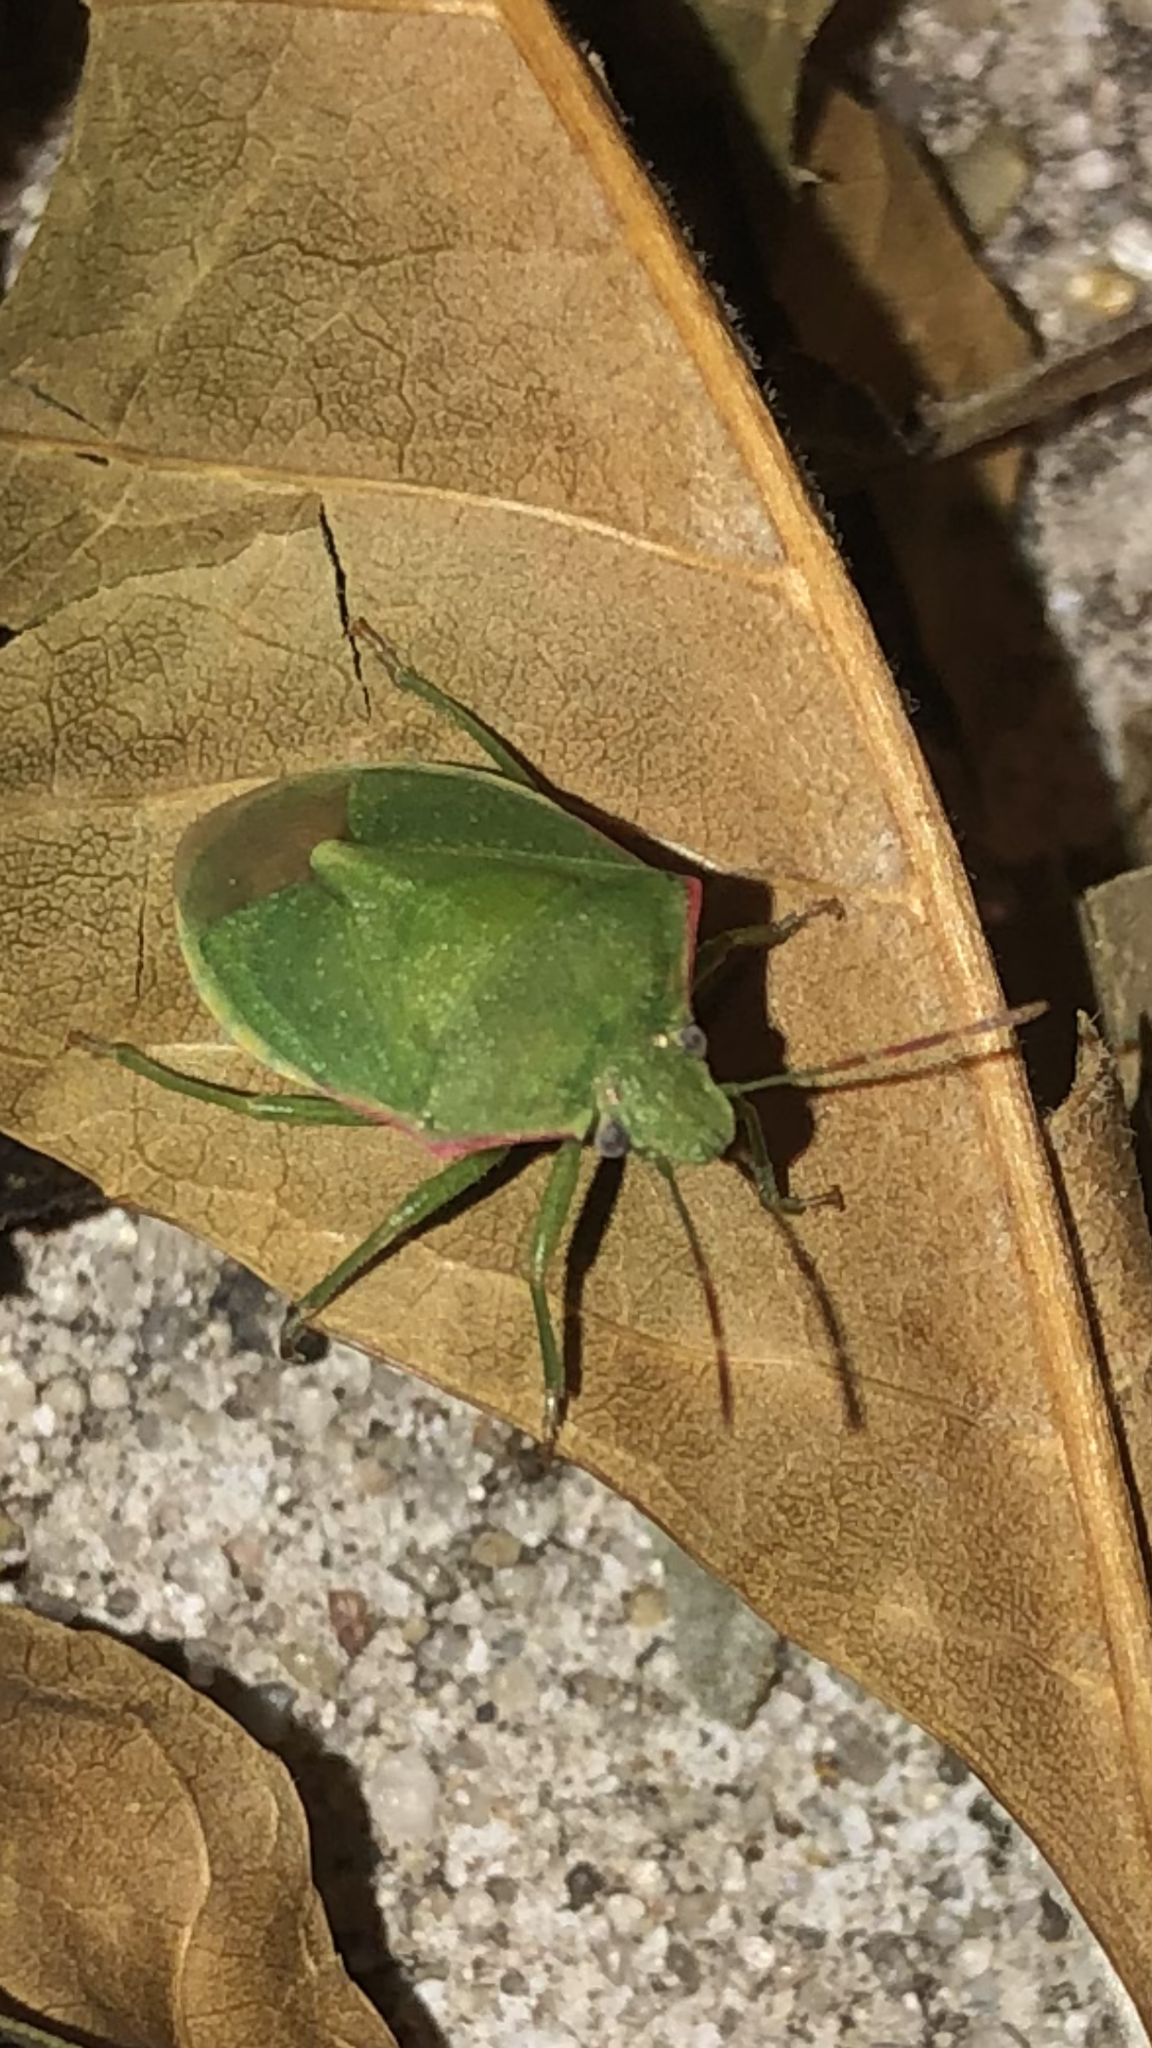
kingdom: Animalia
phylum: Arthropoda
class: Insecta
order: Hemiptera
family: Pentatomidae
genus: Thyanta
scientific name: Thyanta accerra
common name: Stink bug
